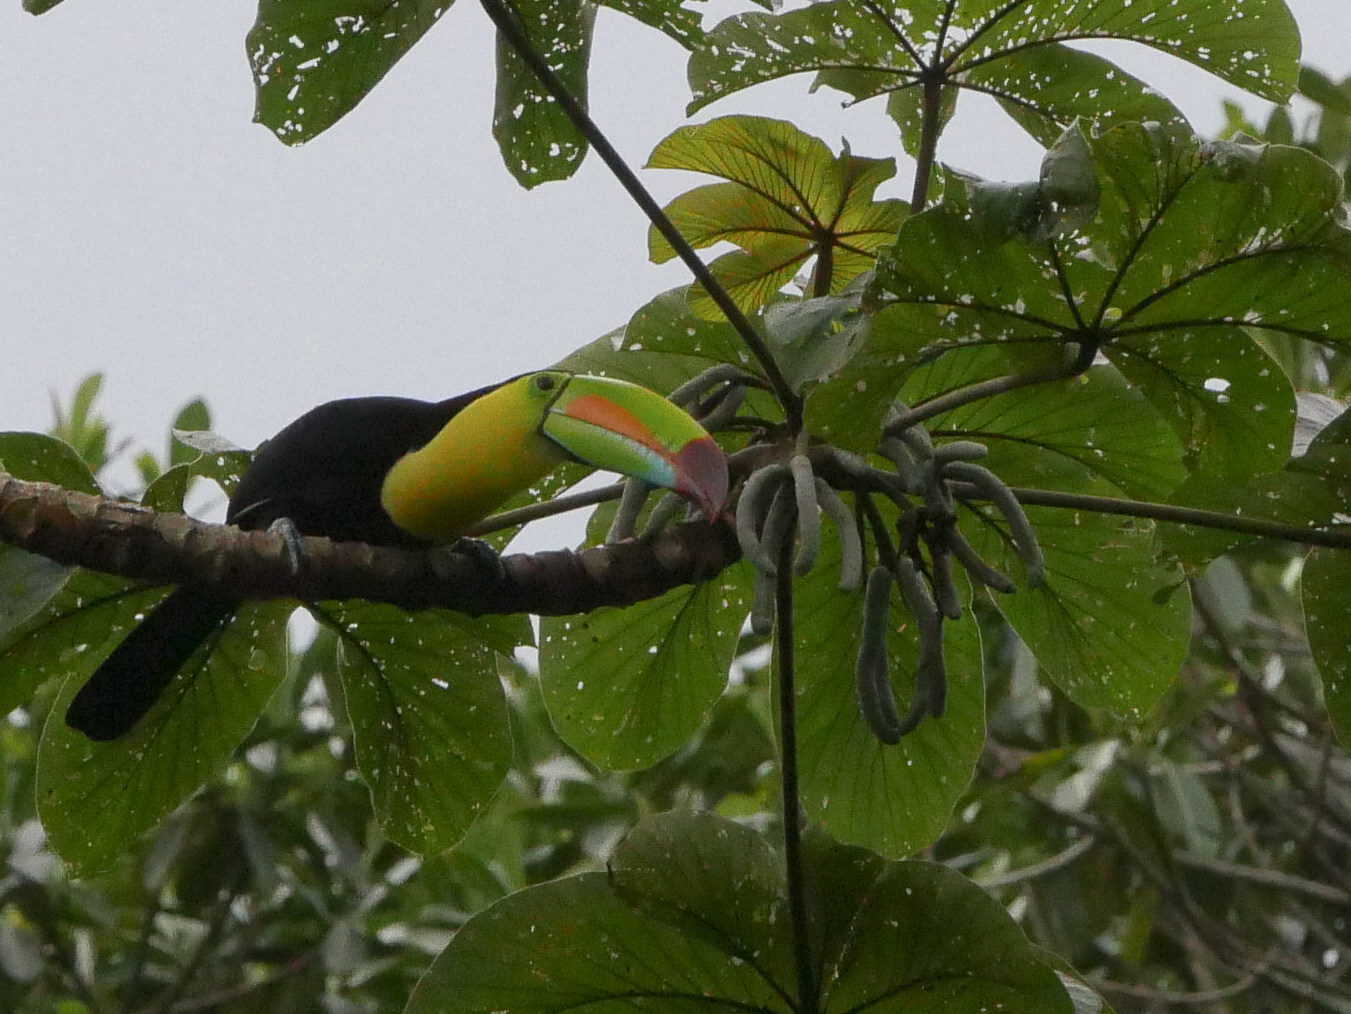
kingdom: Animalia
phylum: Chordata
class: Aves
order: Piciformes
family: Ramphastidae
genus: Ramphastos
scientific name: Ramphastos sulfuratus
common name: Keel-billed toucan
